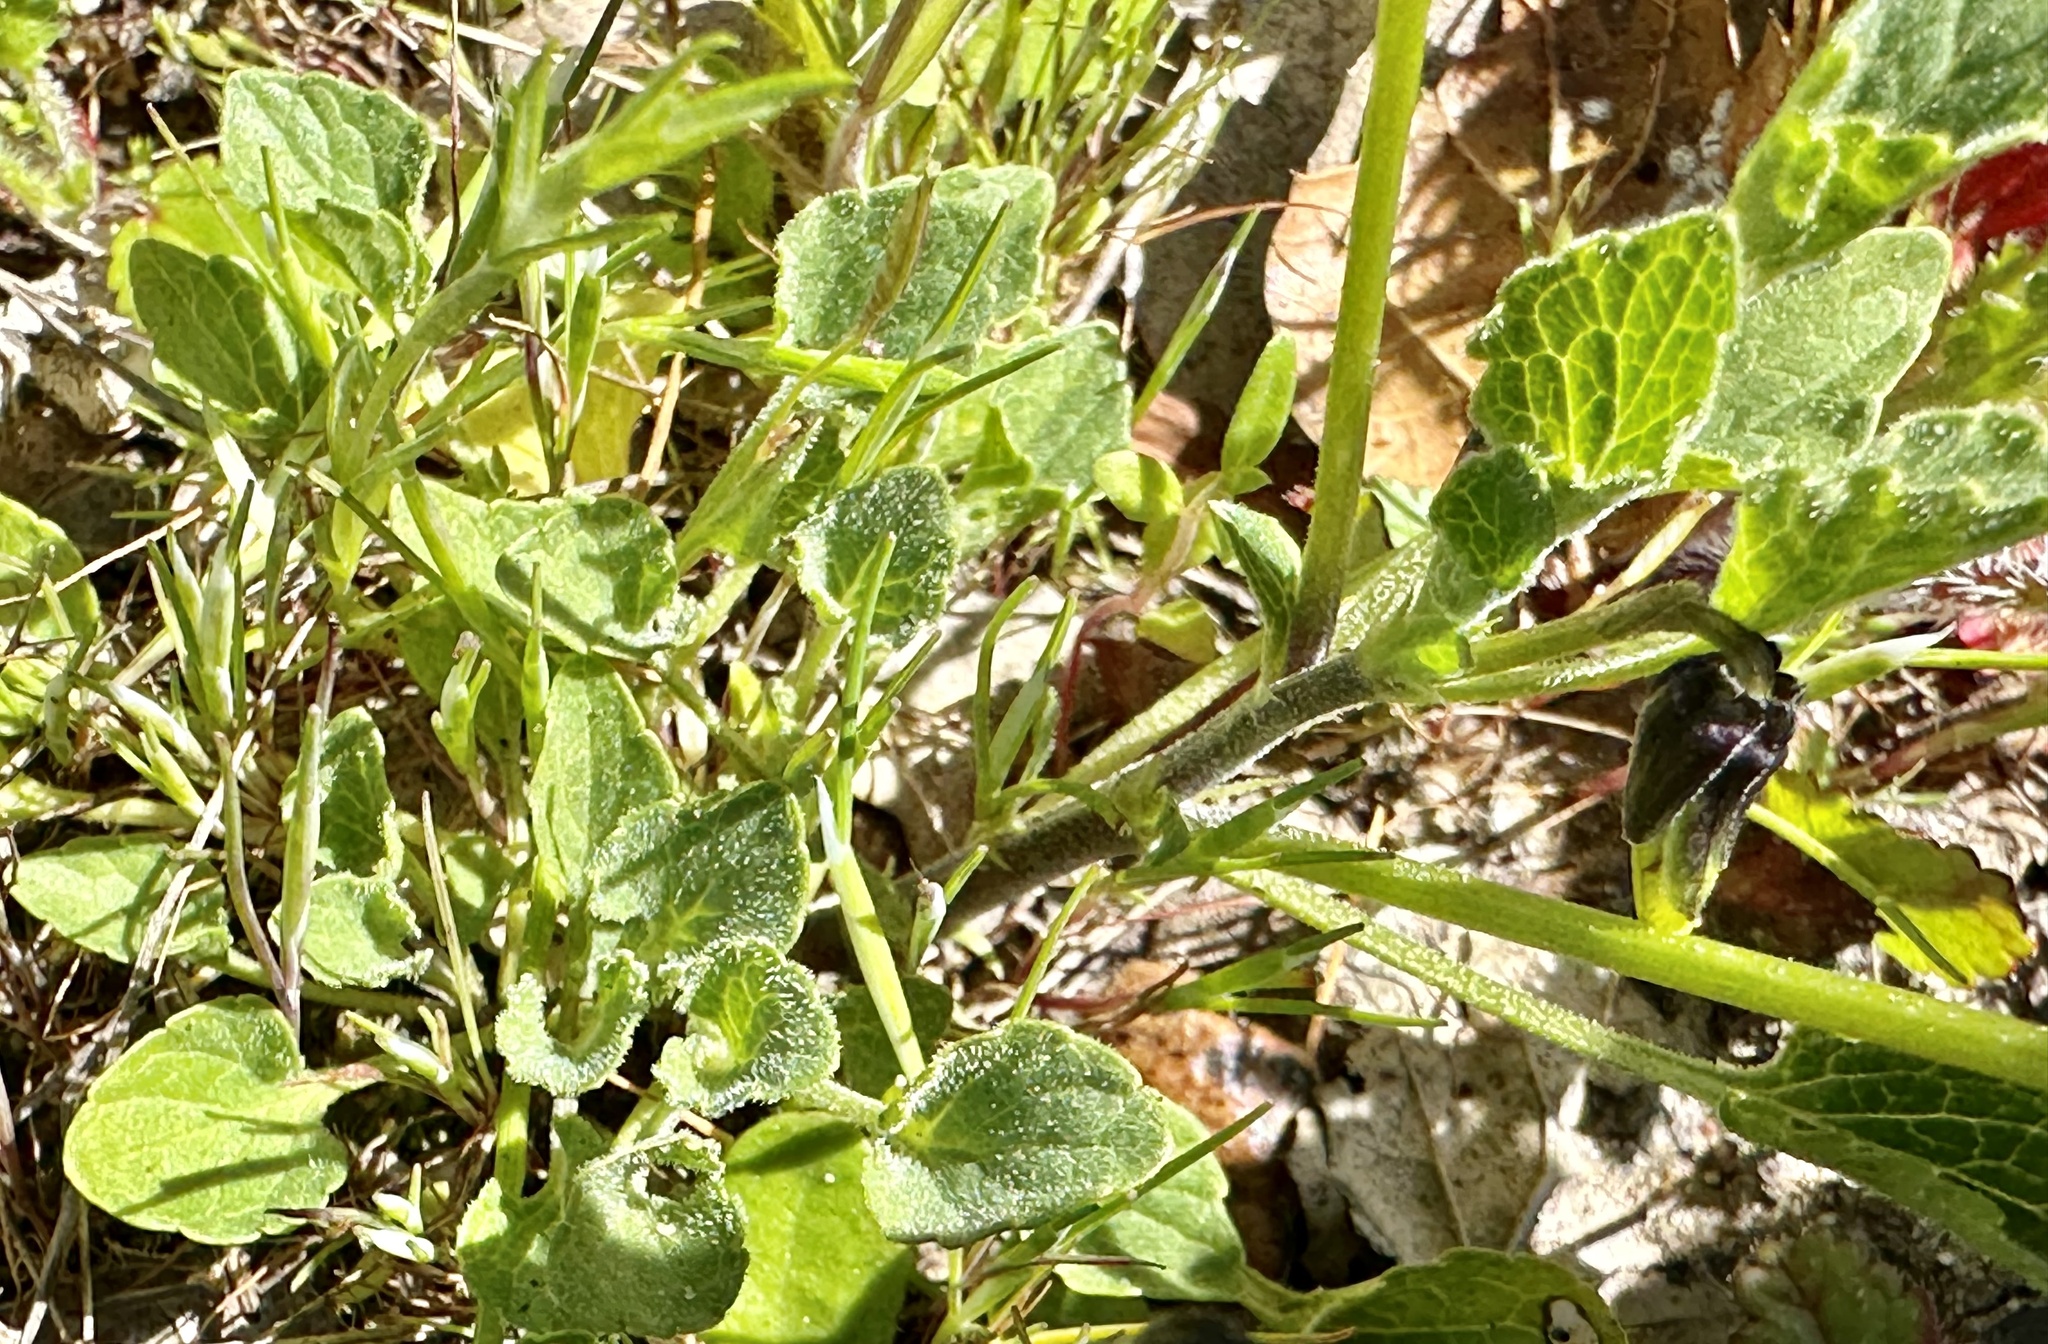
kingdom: Plantae
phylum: Tracheophyta
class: Magnoliopsida
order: Malpighiales
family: Violaceae
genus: Viola
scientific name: Viola pedunculata
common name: California golden violet
